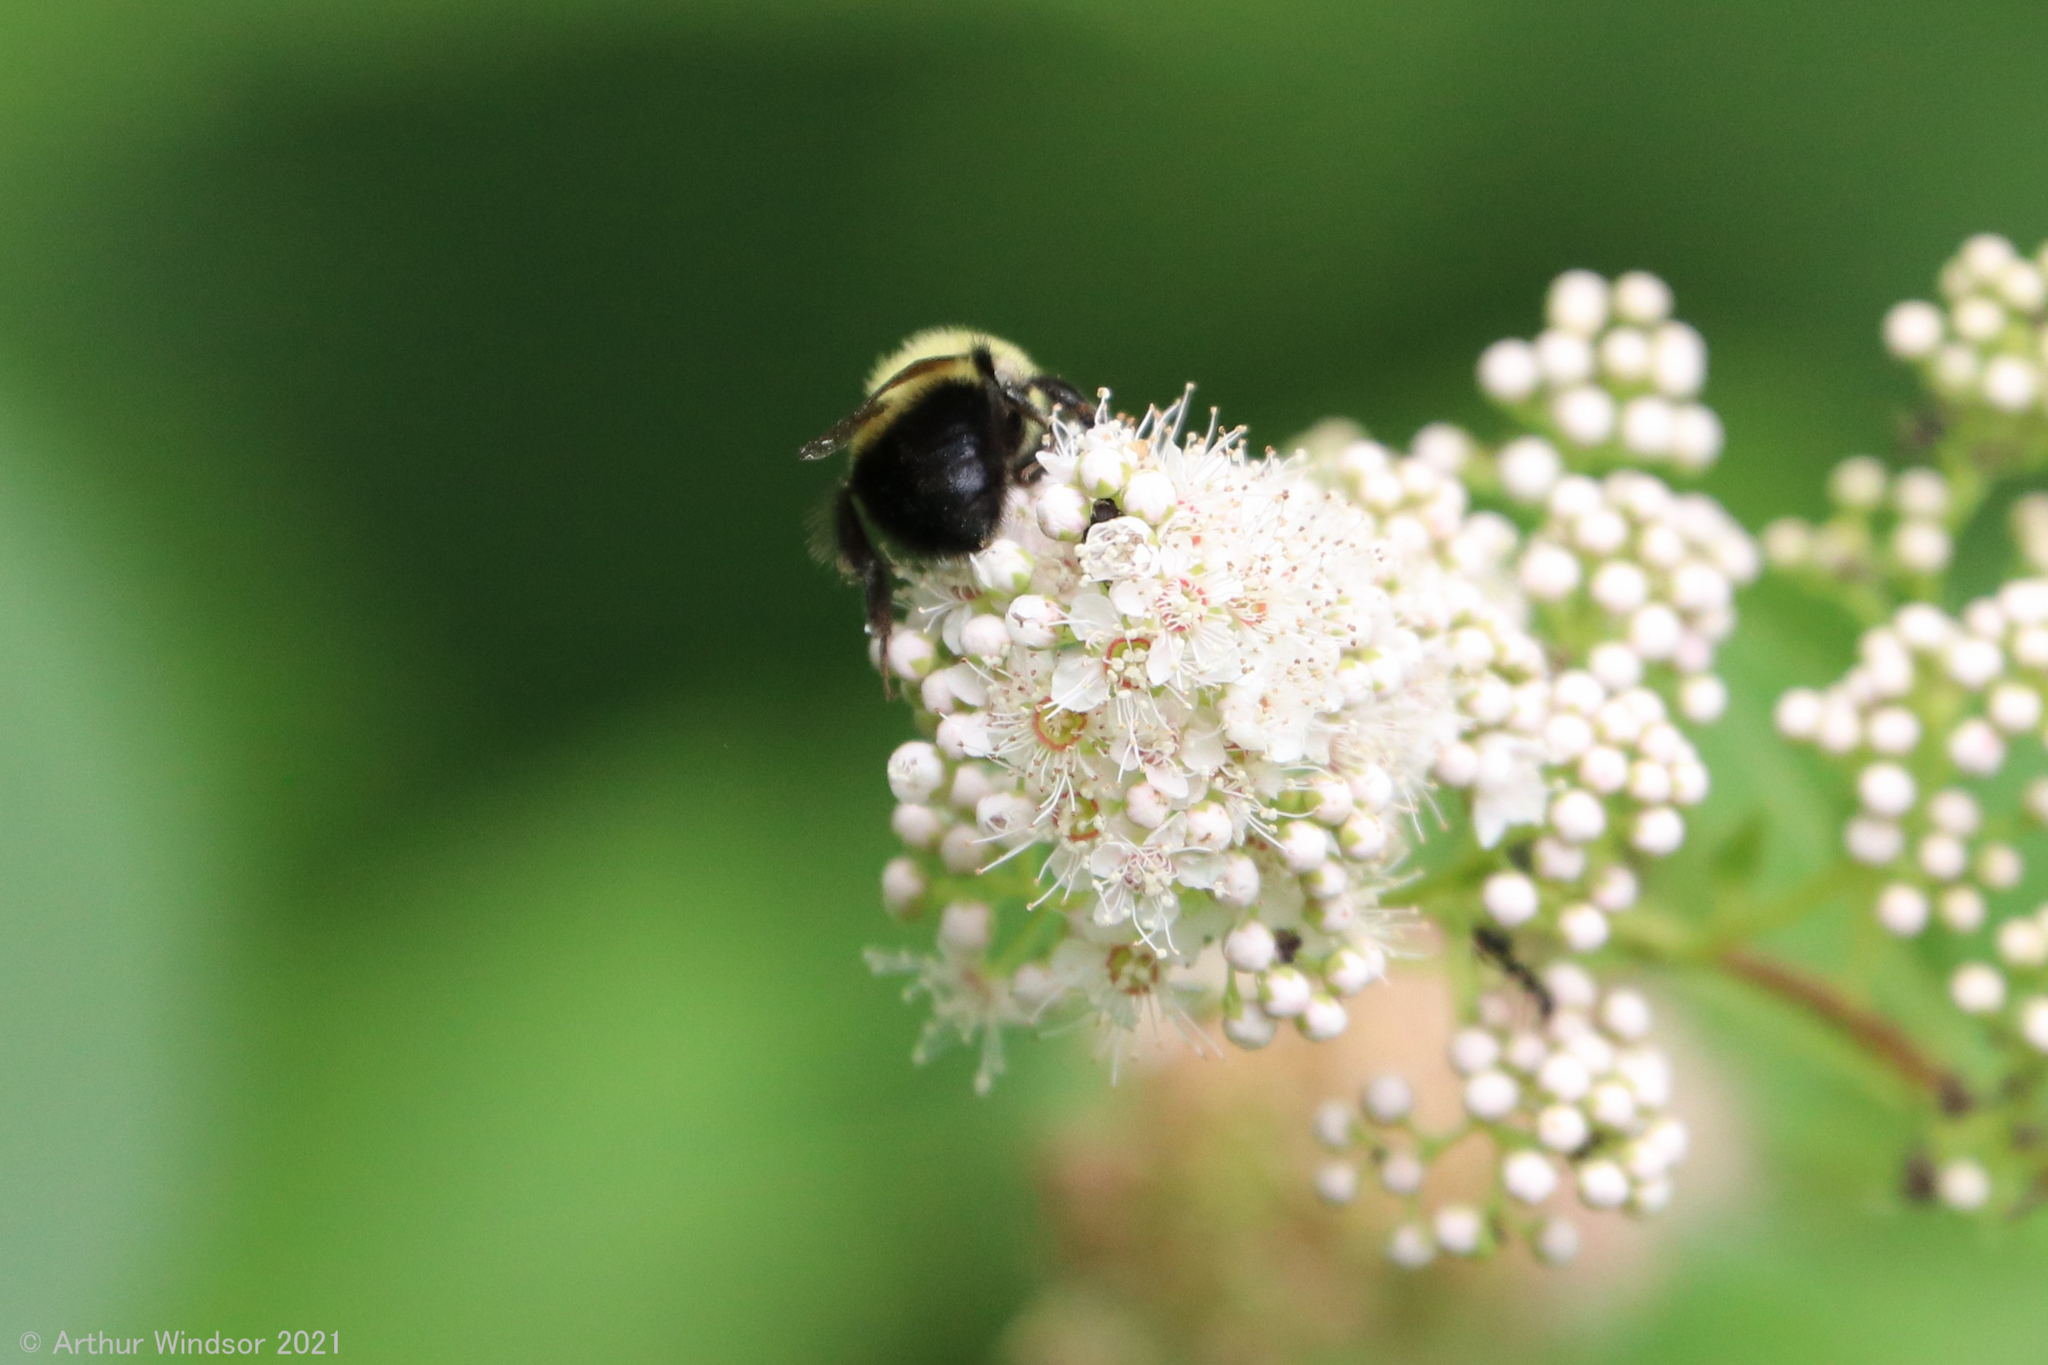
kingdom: Animalia
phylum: Arthropoda
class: Insecta
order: Hymenoptera
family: Apidae
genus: Bombus
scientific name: Bombus griseocollis
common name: Brown-belted bumble bee
